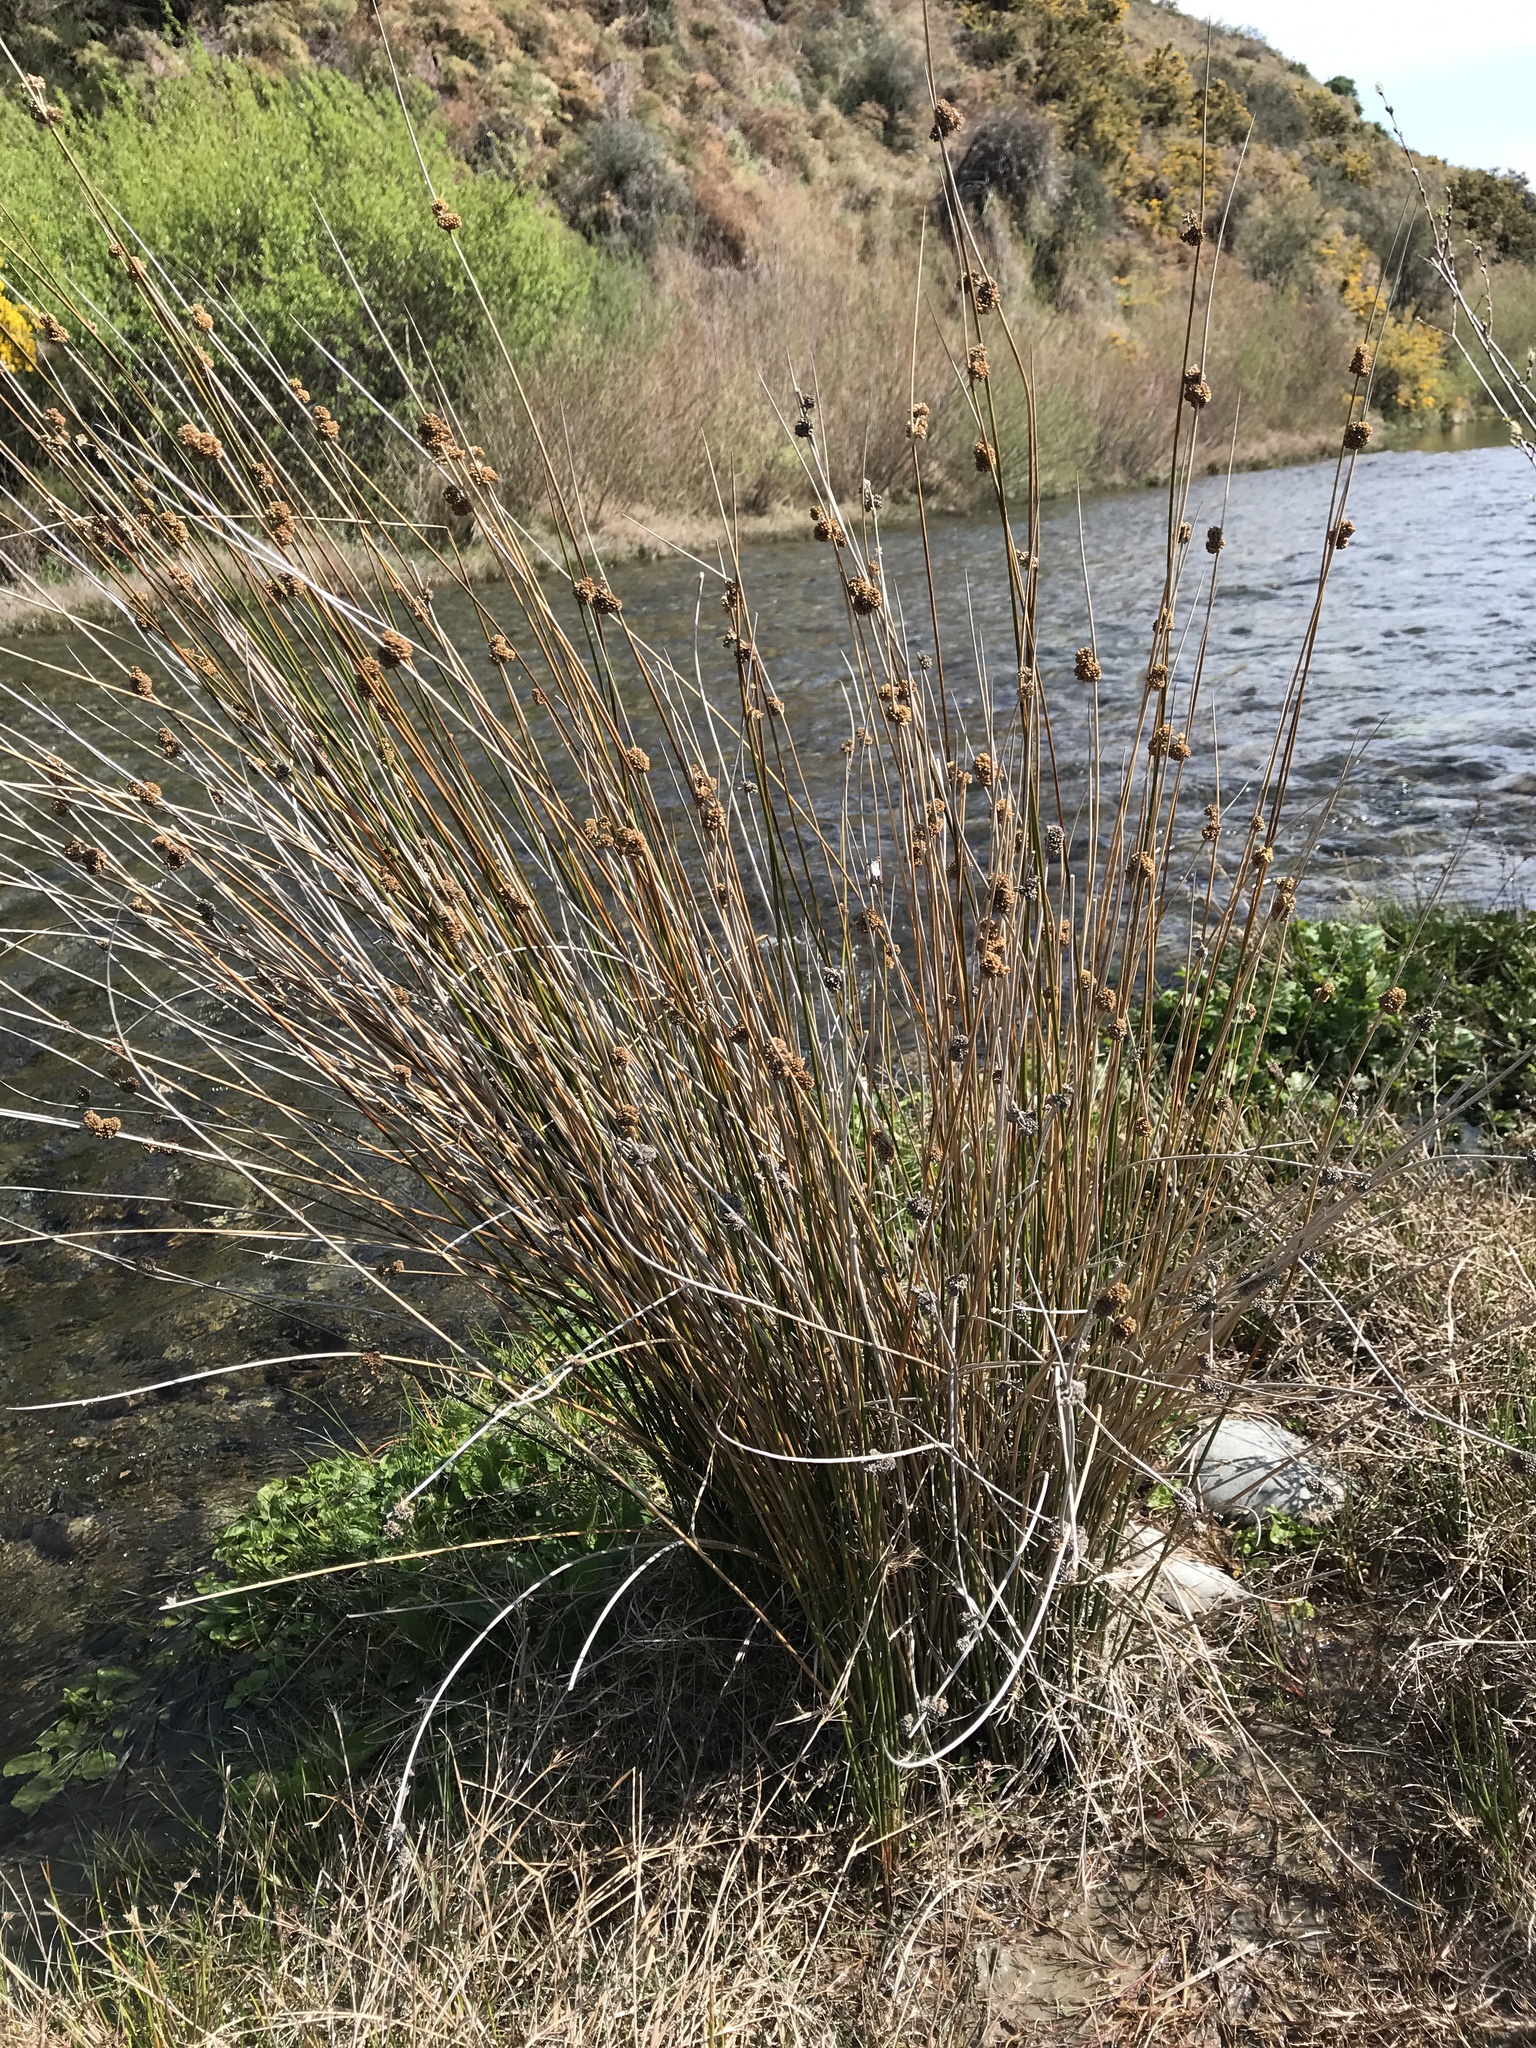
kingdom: Plantae
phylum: Tracheophyta
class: Liliopsida
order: Poales
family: Cyperaceae
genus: Ficinia
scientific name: Ficinia nodosa
